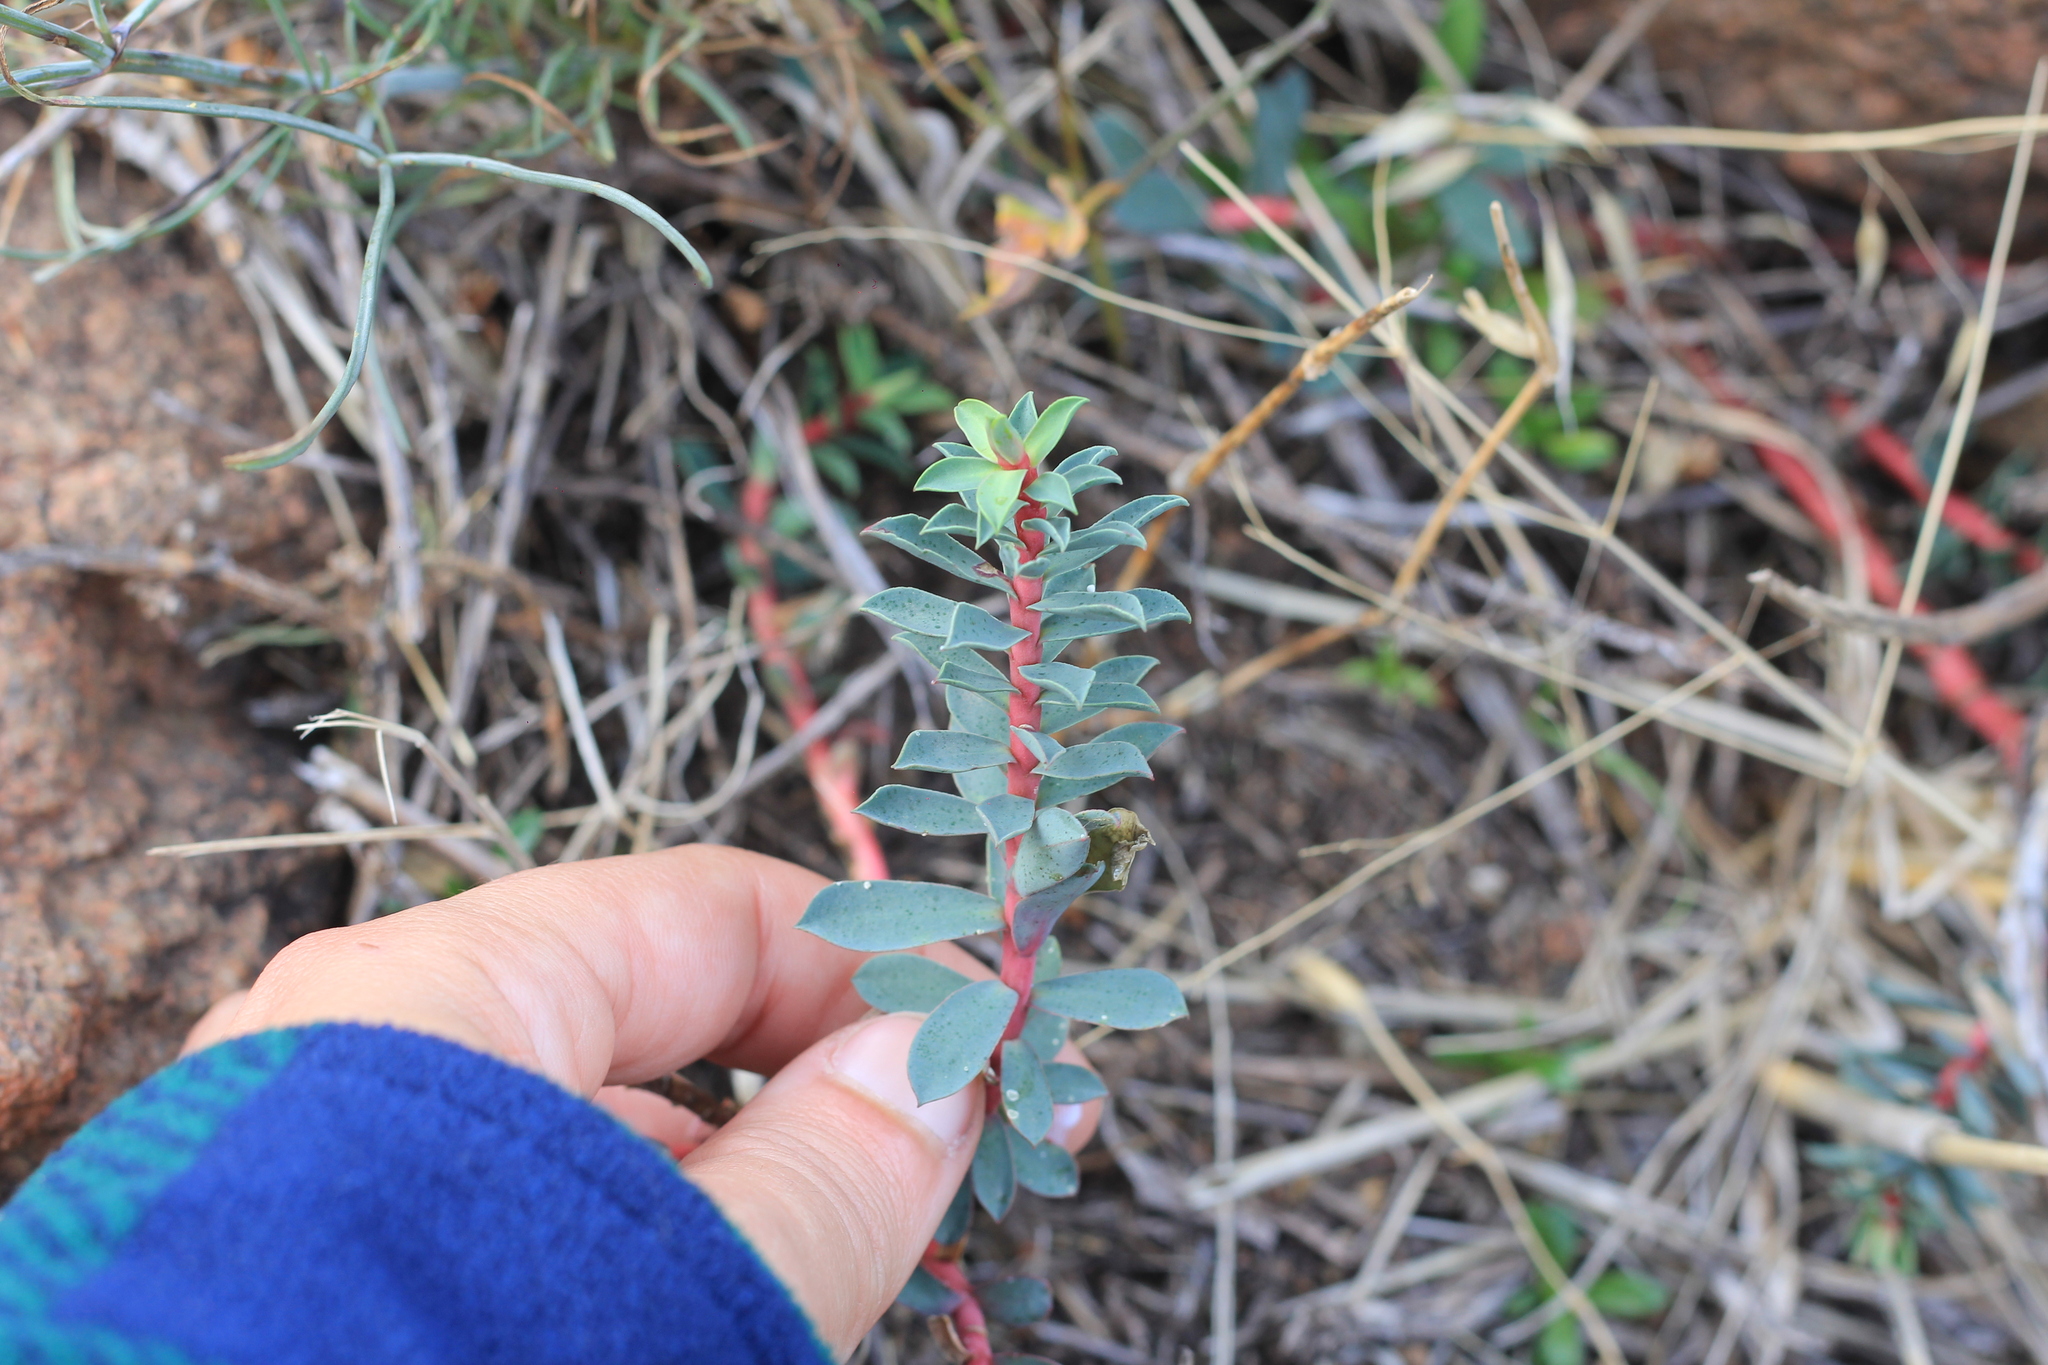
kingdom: Plantae
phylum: Tracheophyta
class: Magnoliopsida
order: Malpighiales
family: Euphorbiaceae
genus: Euphorbia
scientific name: Euphorbia portulacoides
